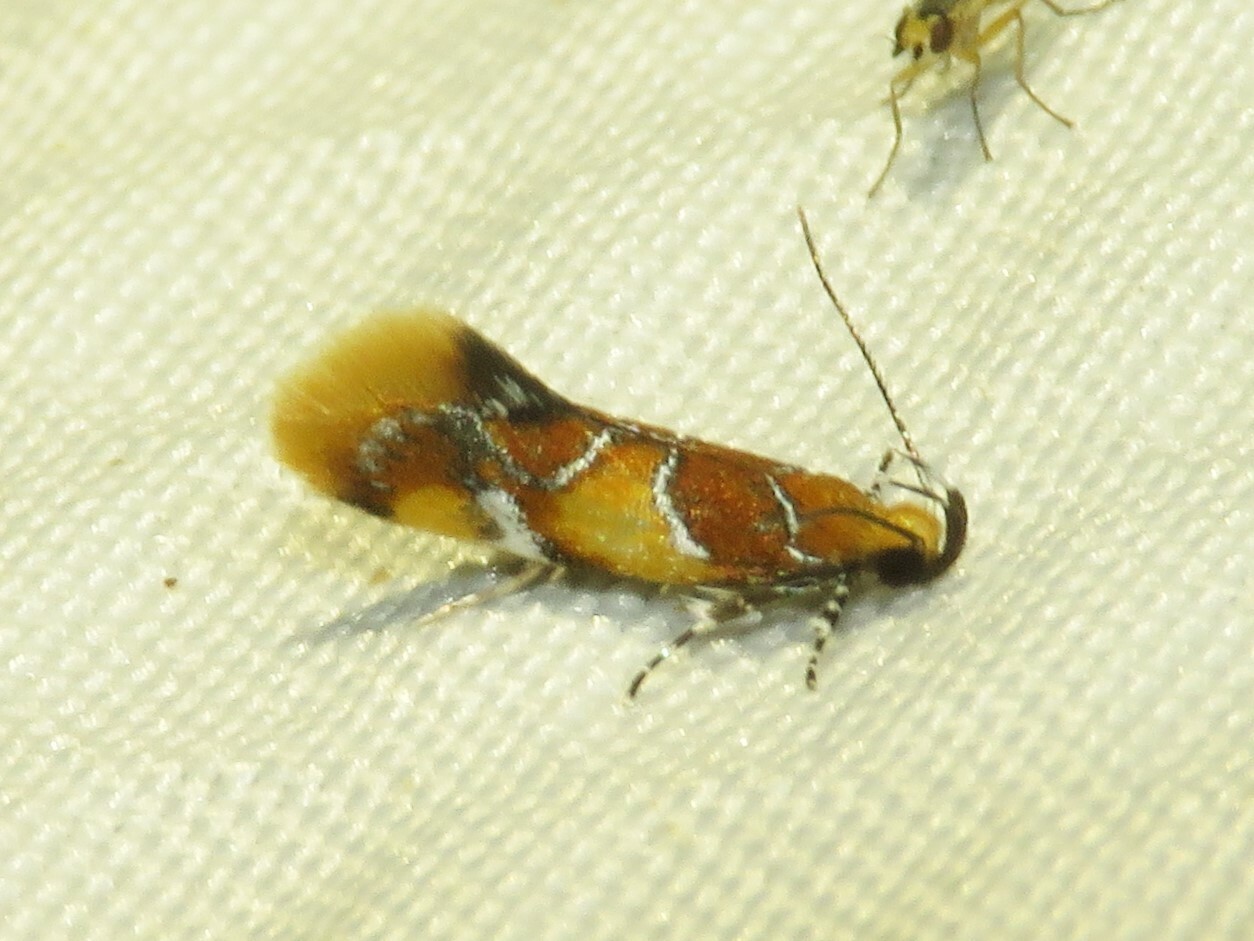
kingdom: Animalia
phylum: Arthropoda
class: Insecta
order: Lepidoptera
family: Oecophoridae
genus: Callima
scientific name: Callima argenticinctella
